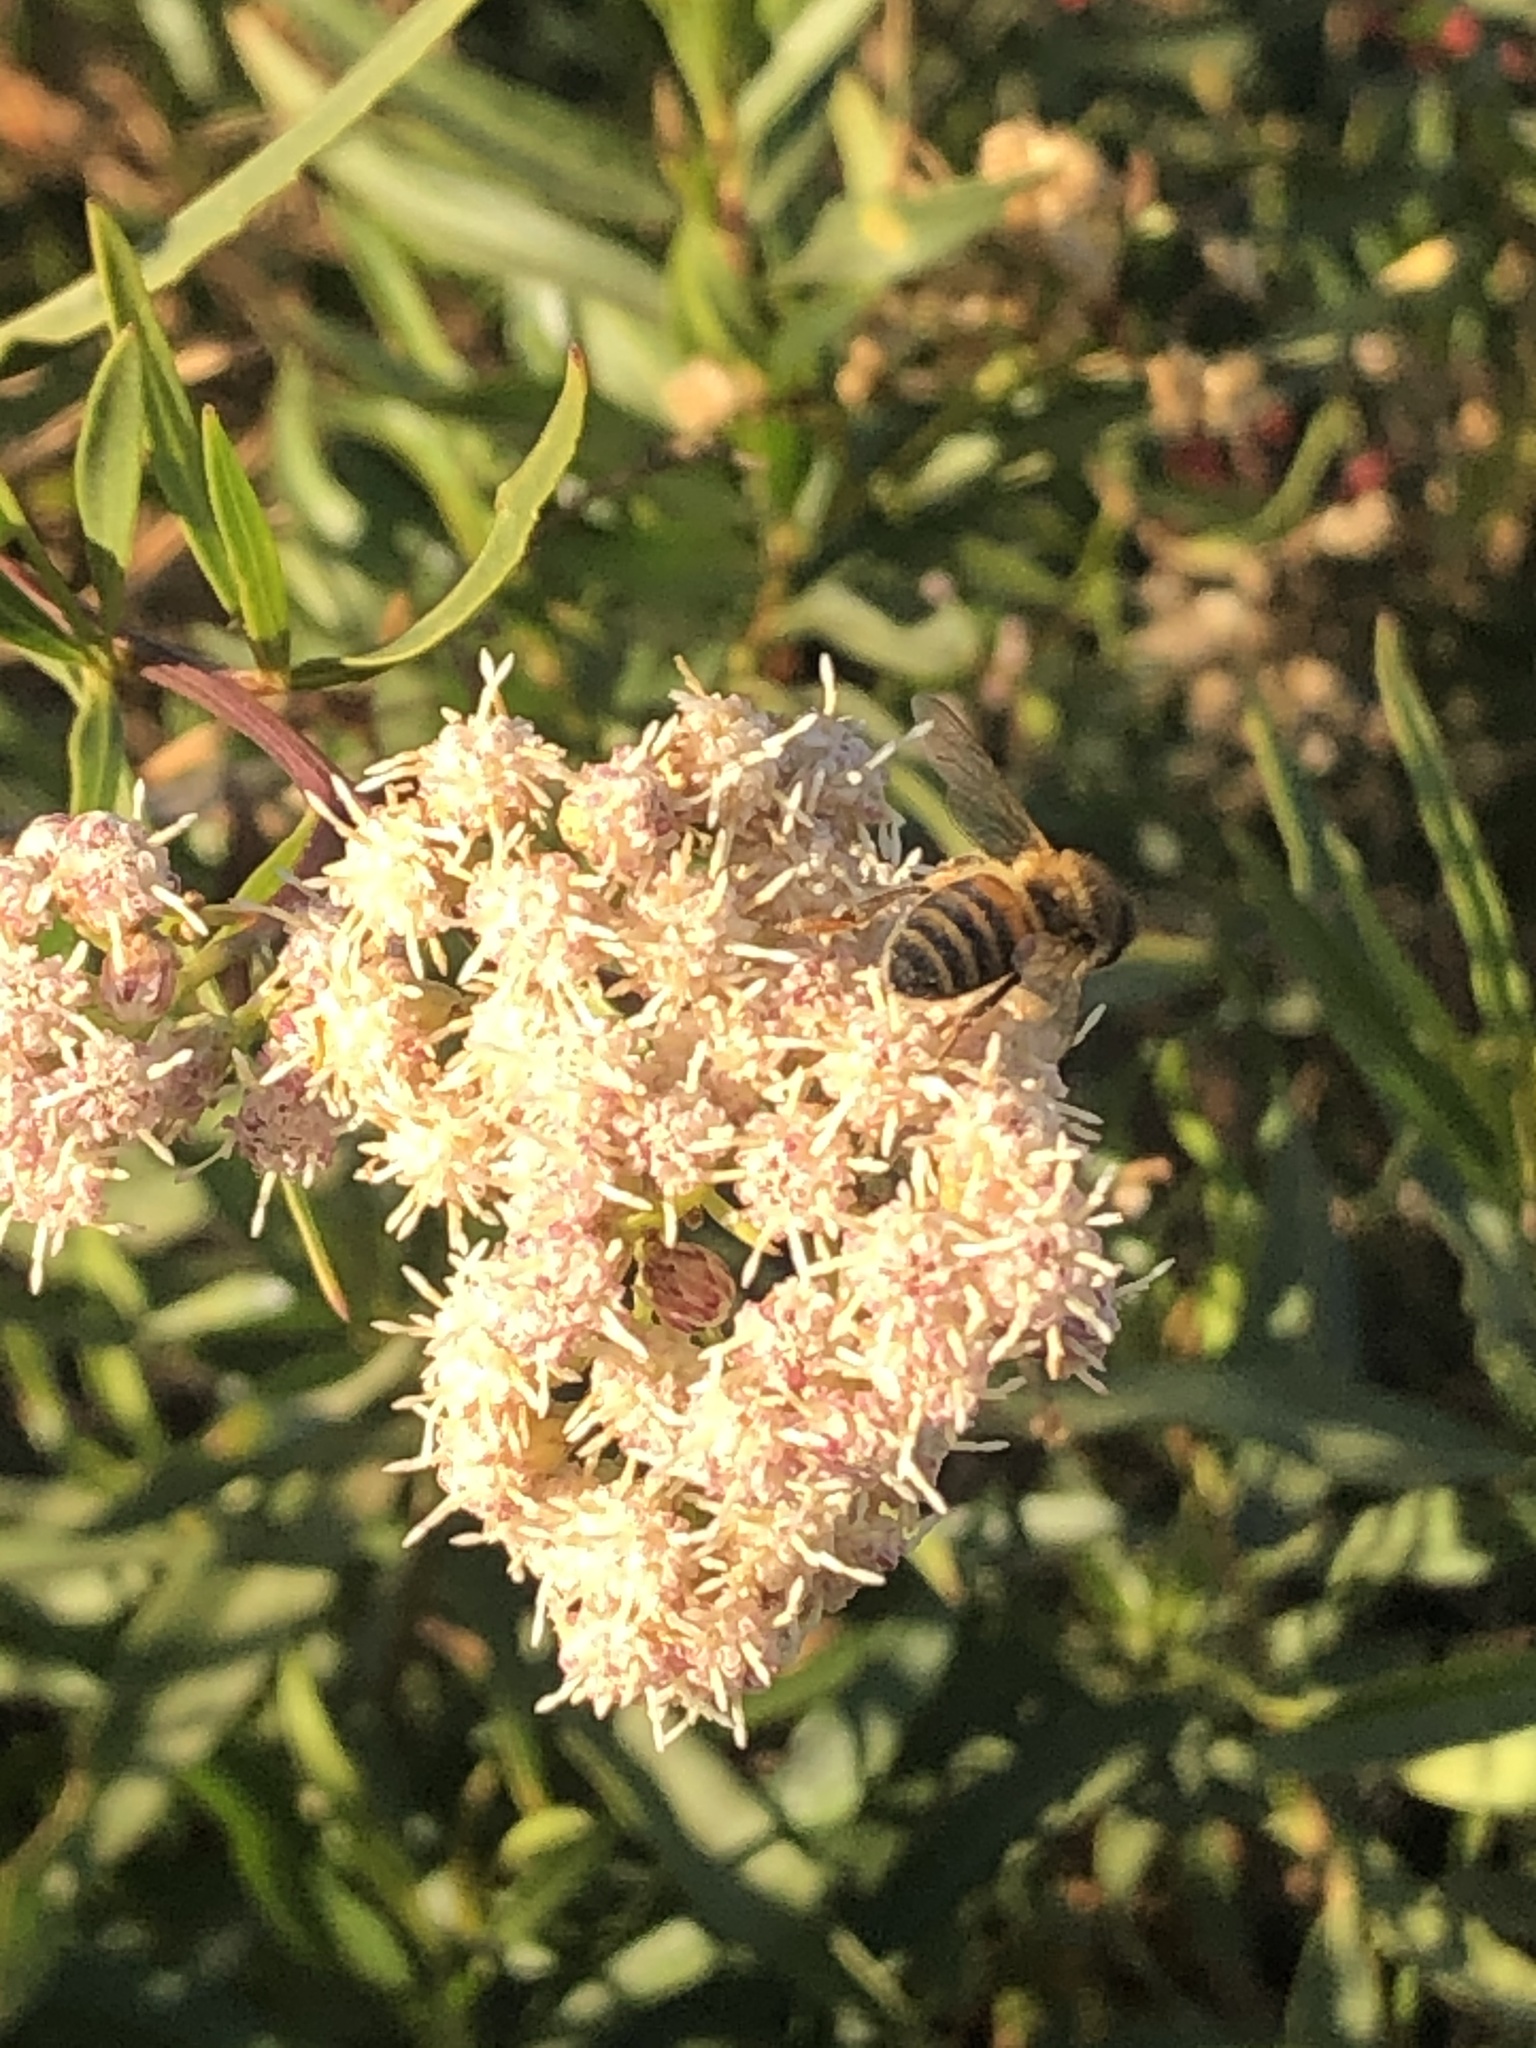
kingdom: Animalia
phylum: Arthropoda
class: Insecta
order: Hymenoptera
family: Apidae
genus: Apis
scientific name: Apis mellifera
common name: Honey bee
